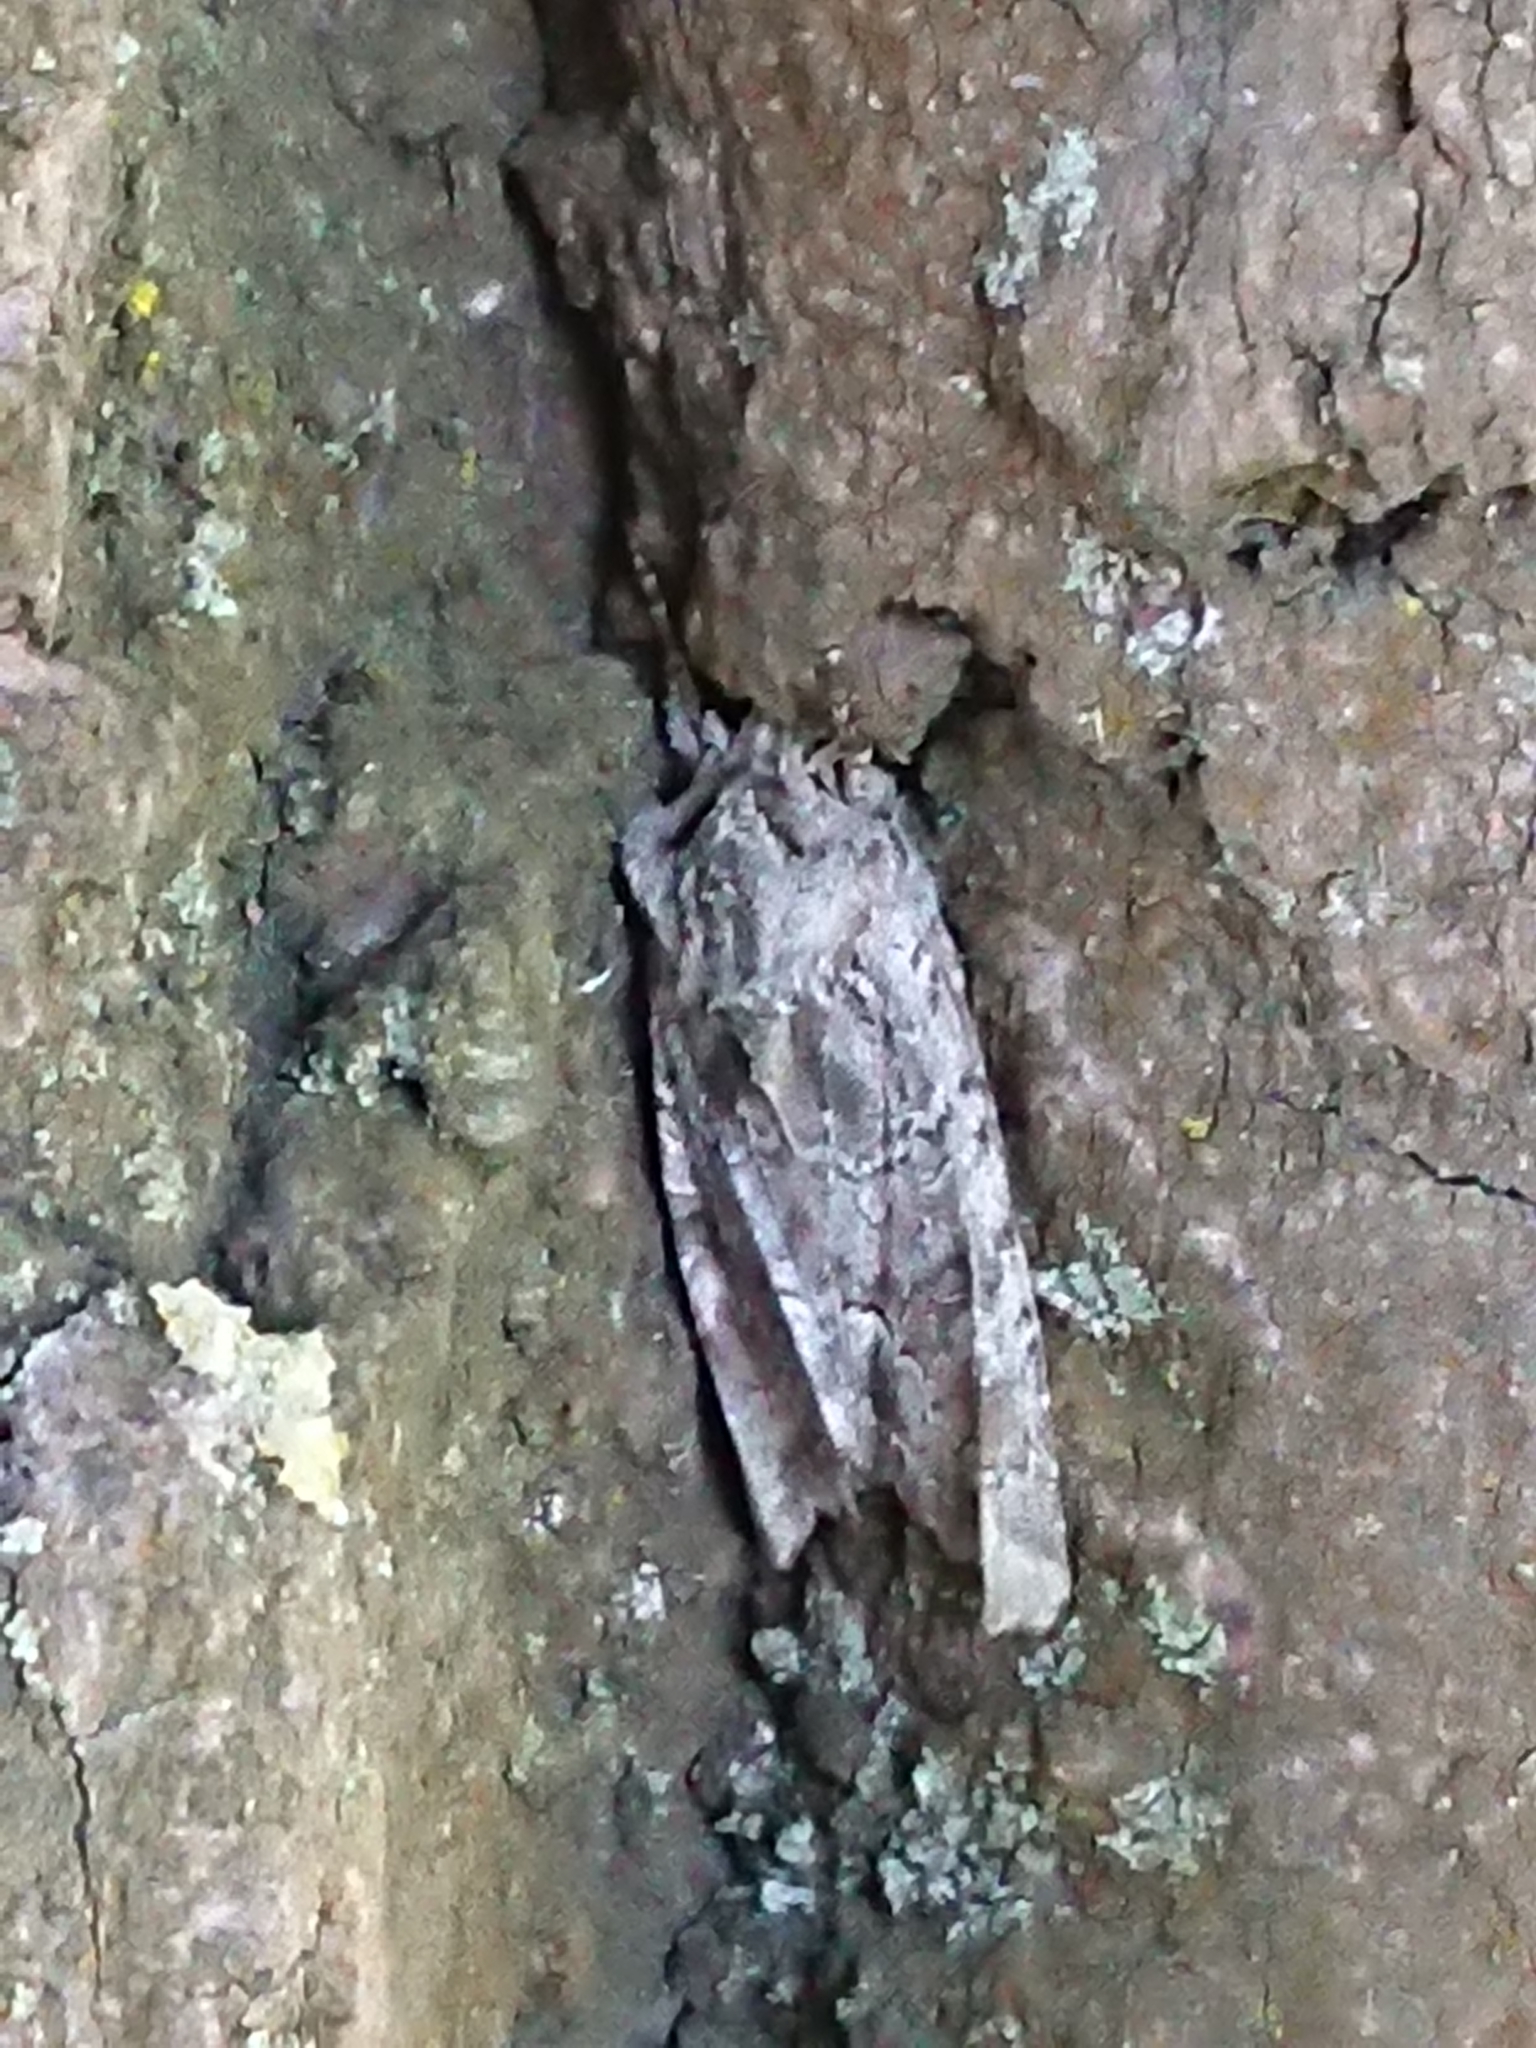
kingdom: Animalia
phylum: Arthropoda
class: Insecta
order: Lepidoptera
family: Noctuidae
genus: Ichneutica
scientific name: Ichneutica mutans
